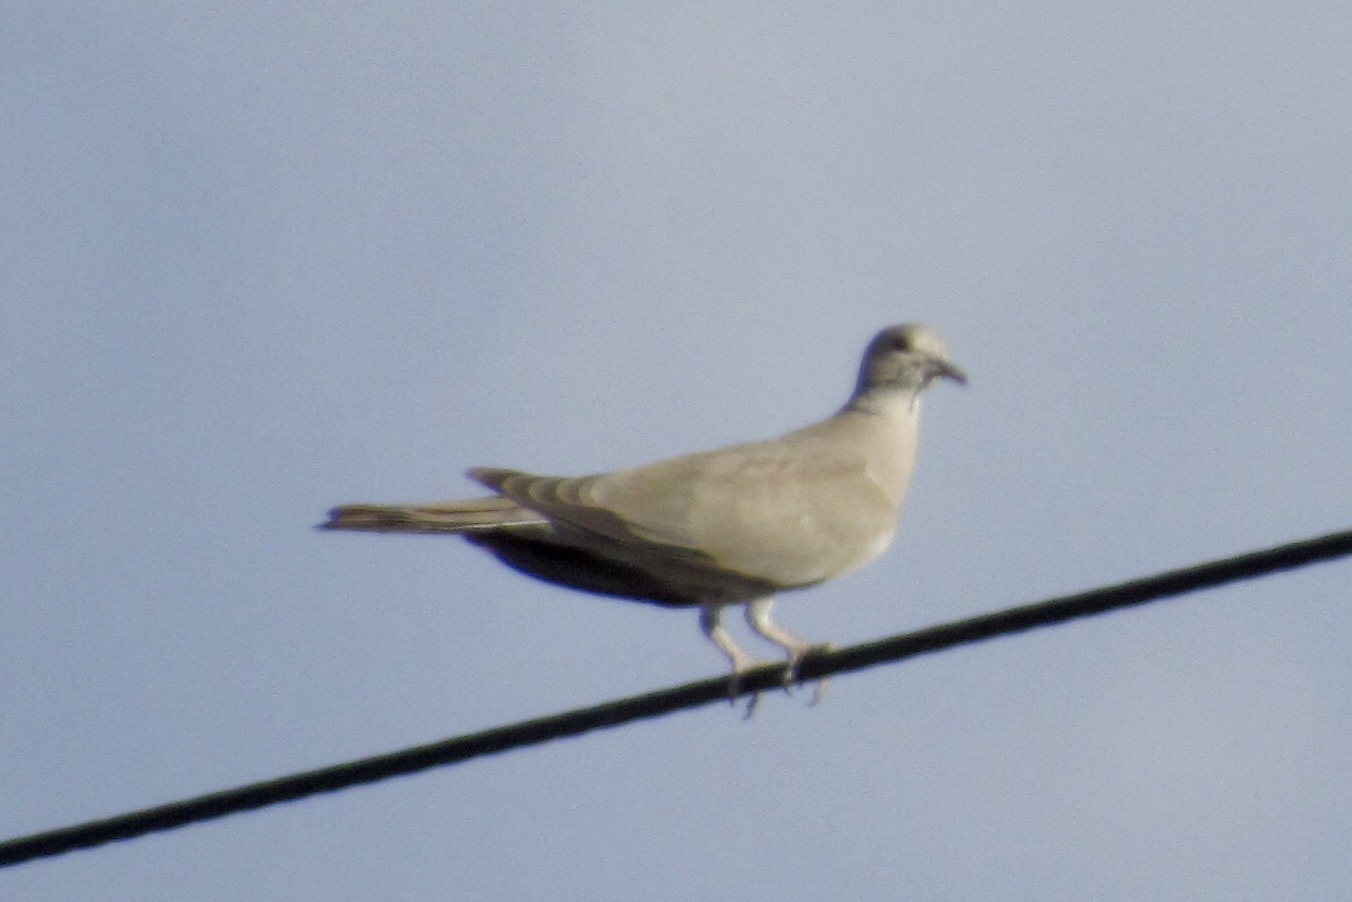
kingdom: Animalia
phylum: Chordata
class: Aves
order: Columbiformes
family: Columbidae
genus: Streptopelia
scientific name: Streptopelia decaocto
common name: Eurasian collared dove
